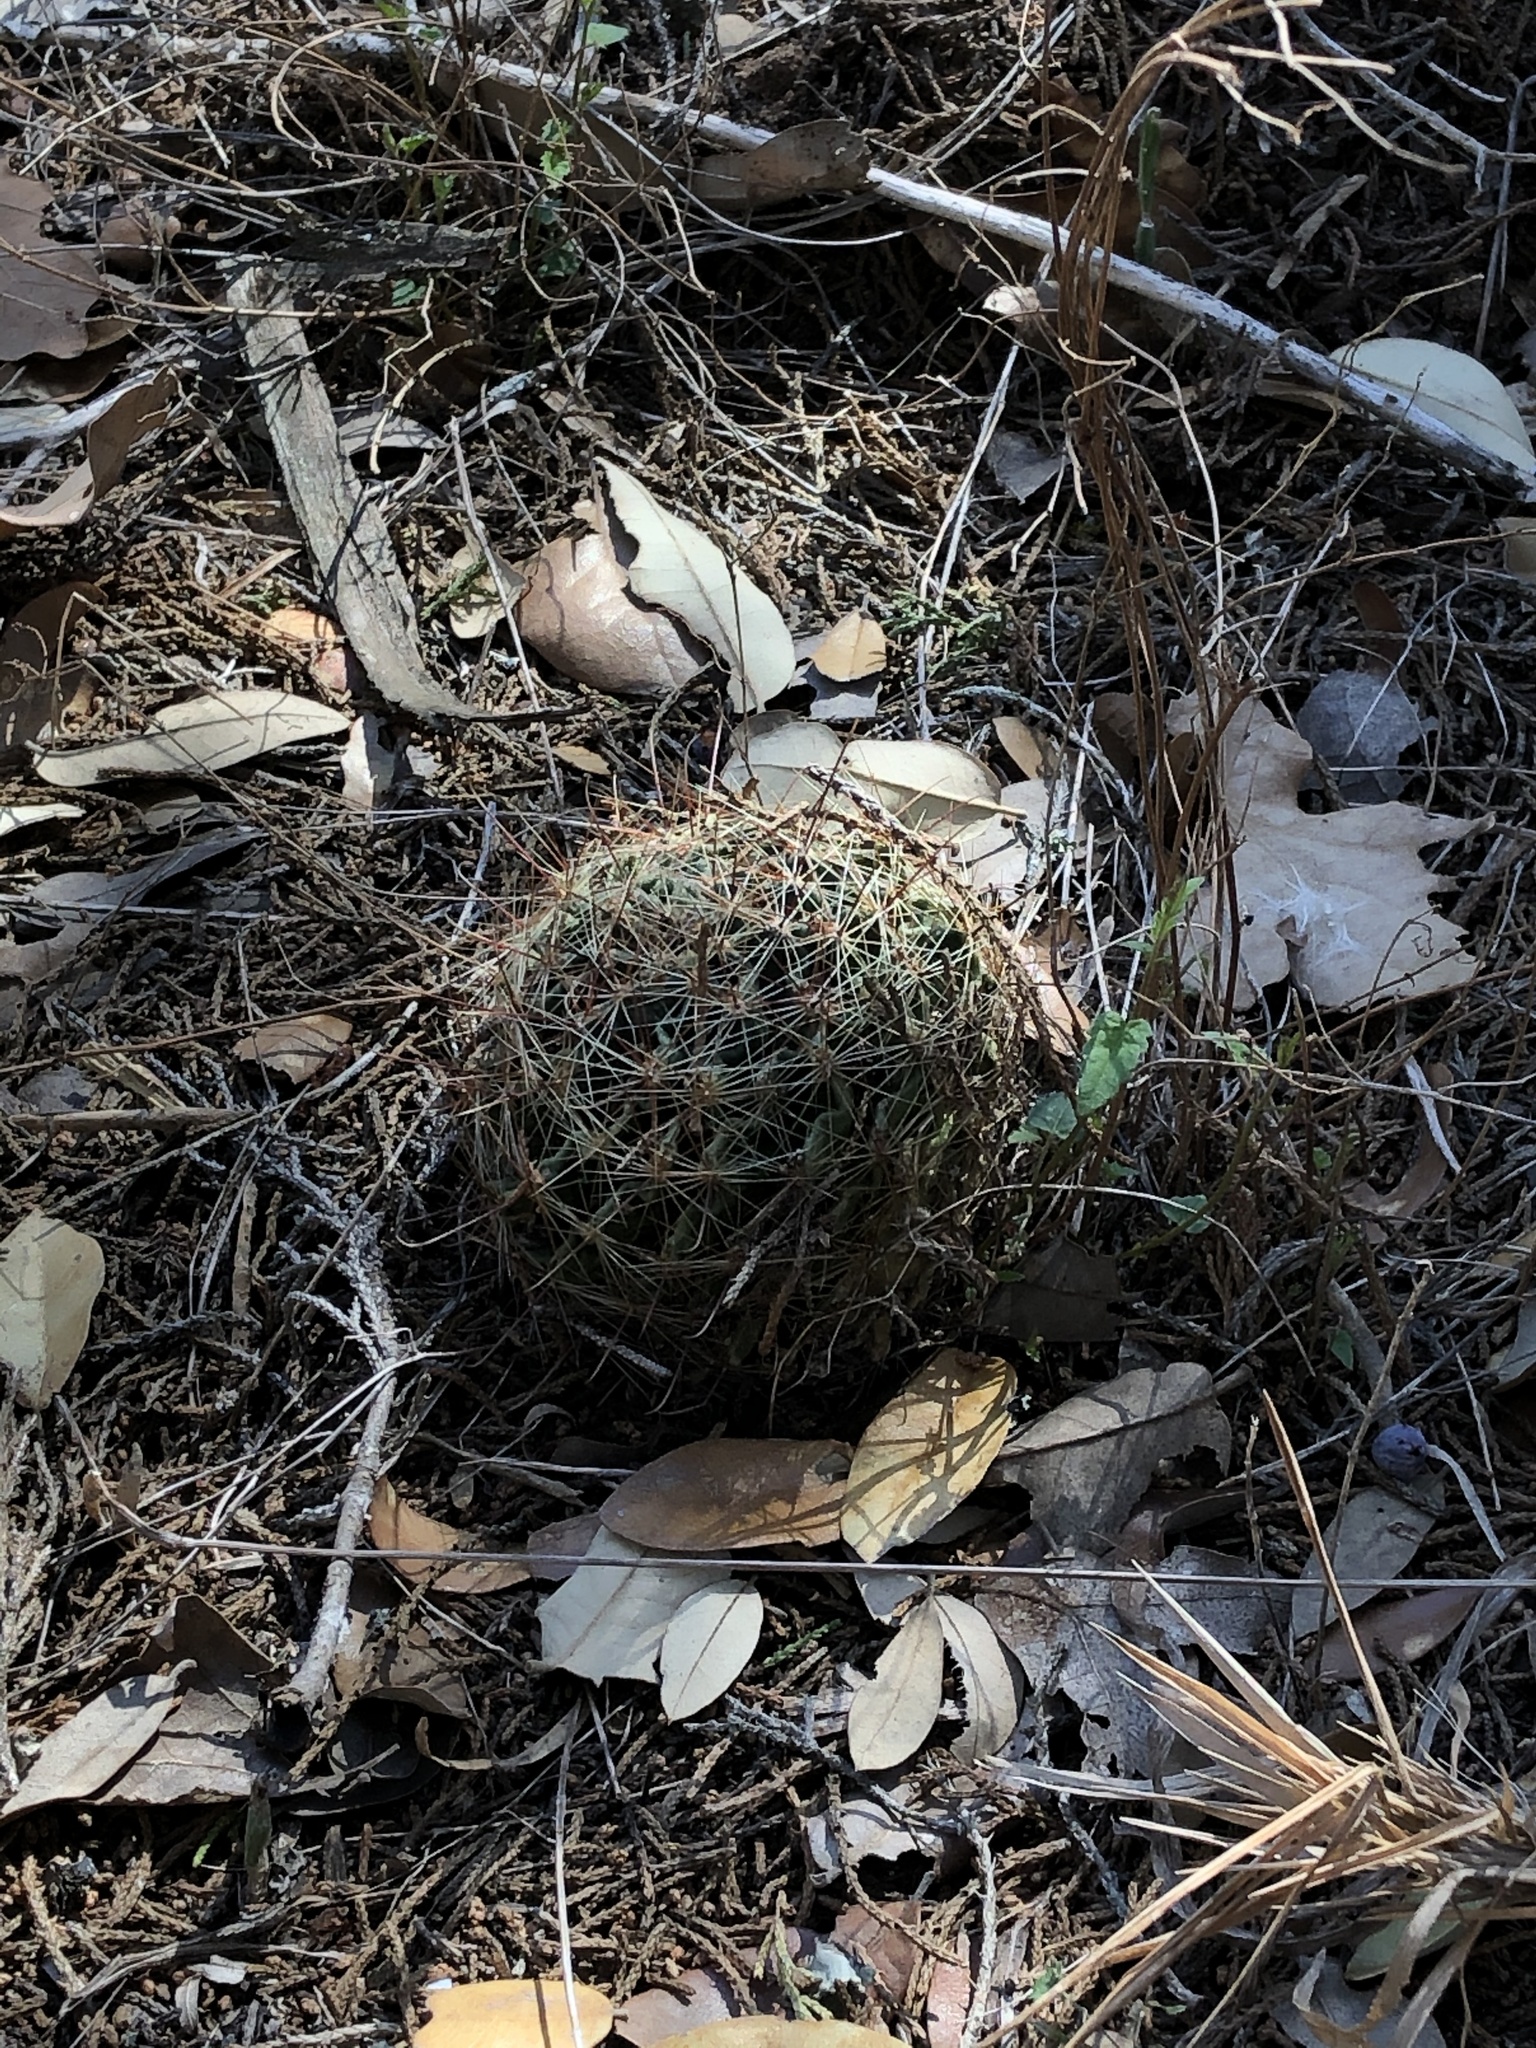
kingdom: Plantae
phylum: Tracheophyta
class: Magnoliopsida
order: Caryophyllales
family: Cactaceae
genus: Thelocactus
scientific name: Thelocactus setispinus
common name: Miniature barrel cactus
